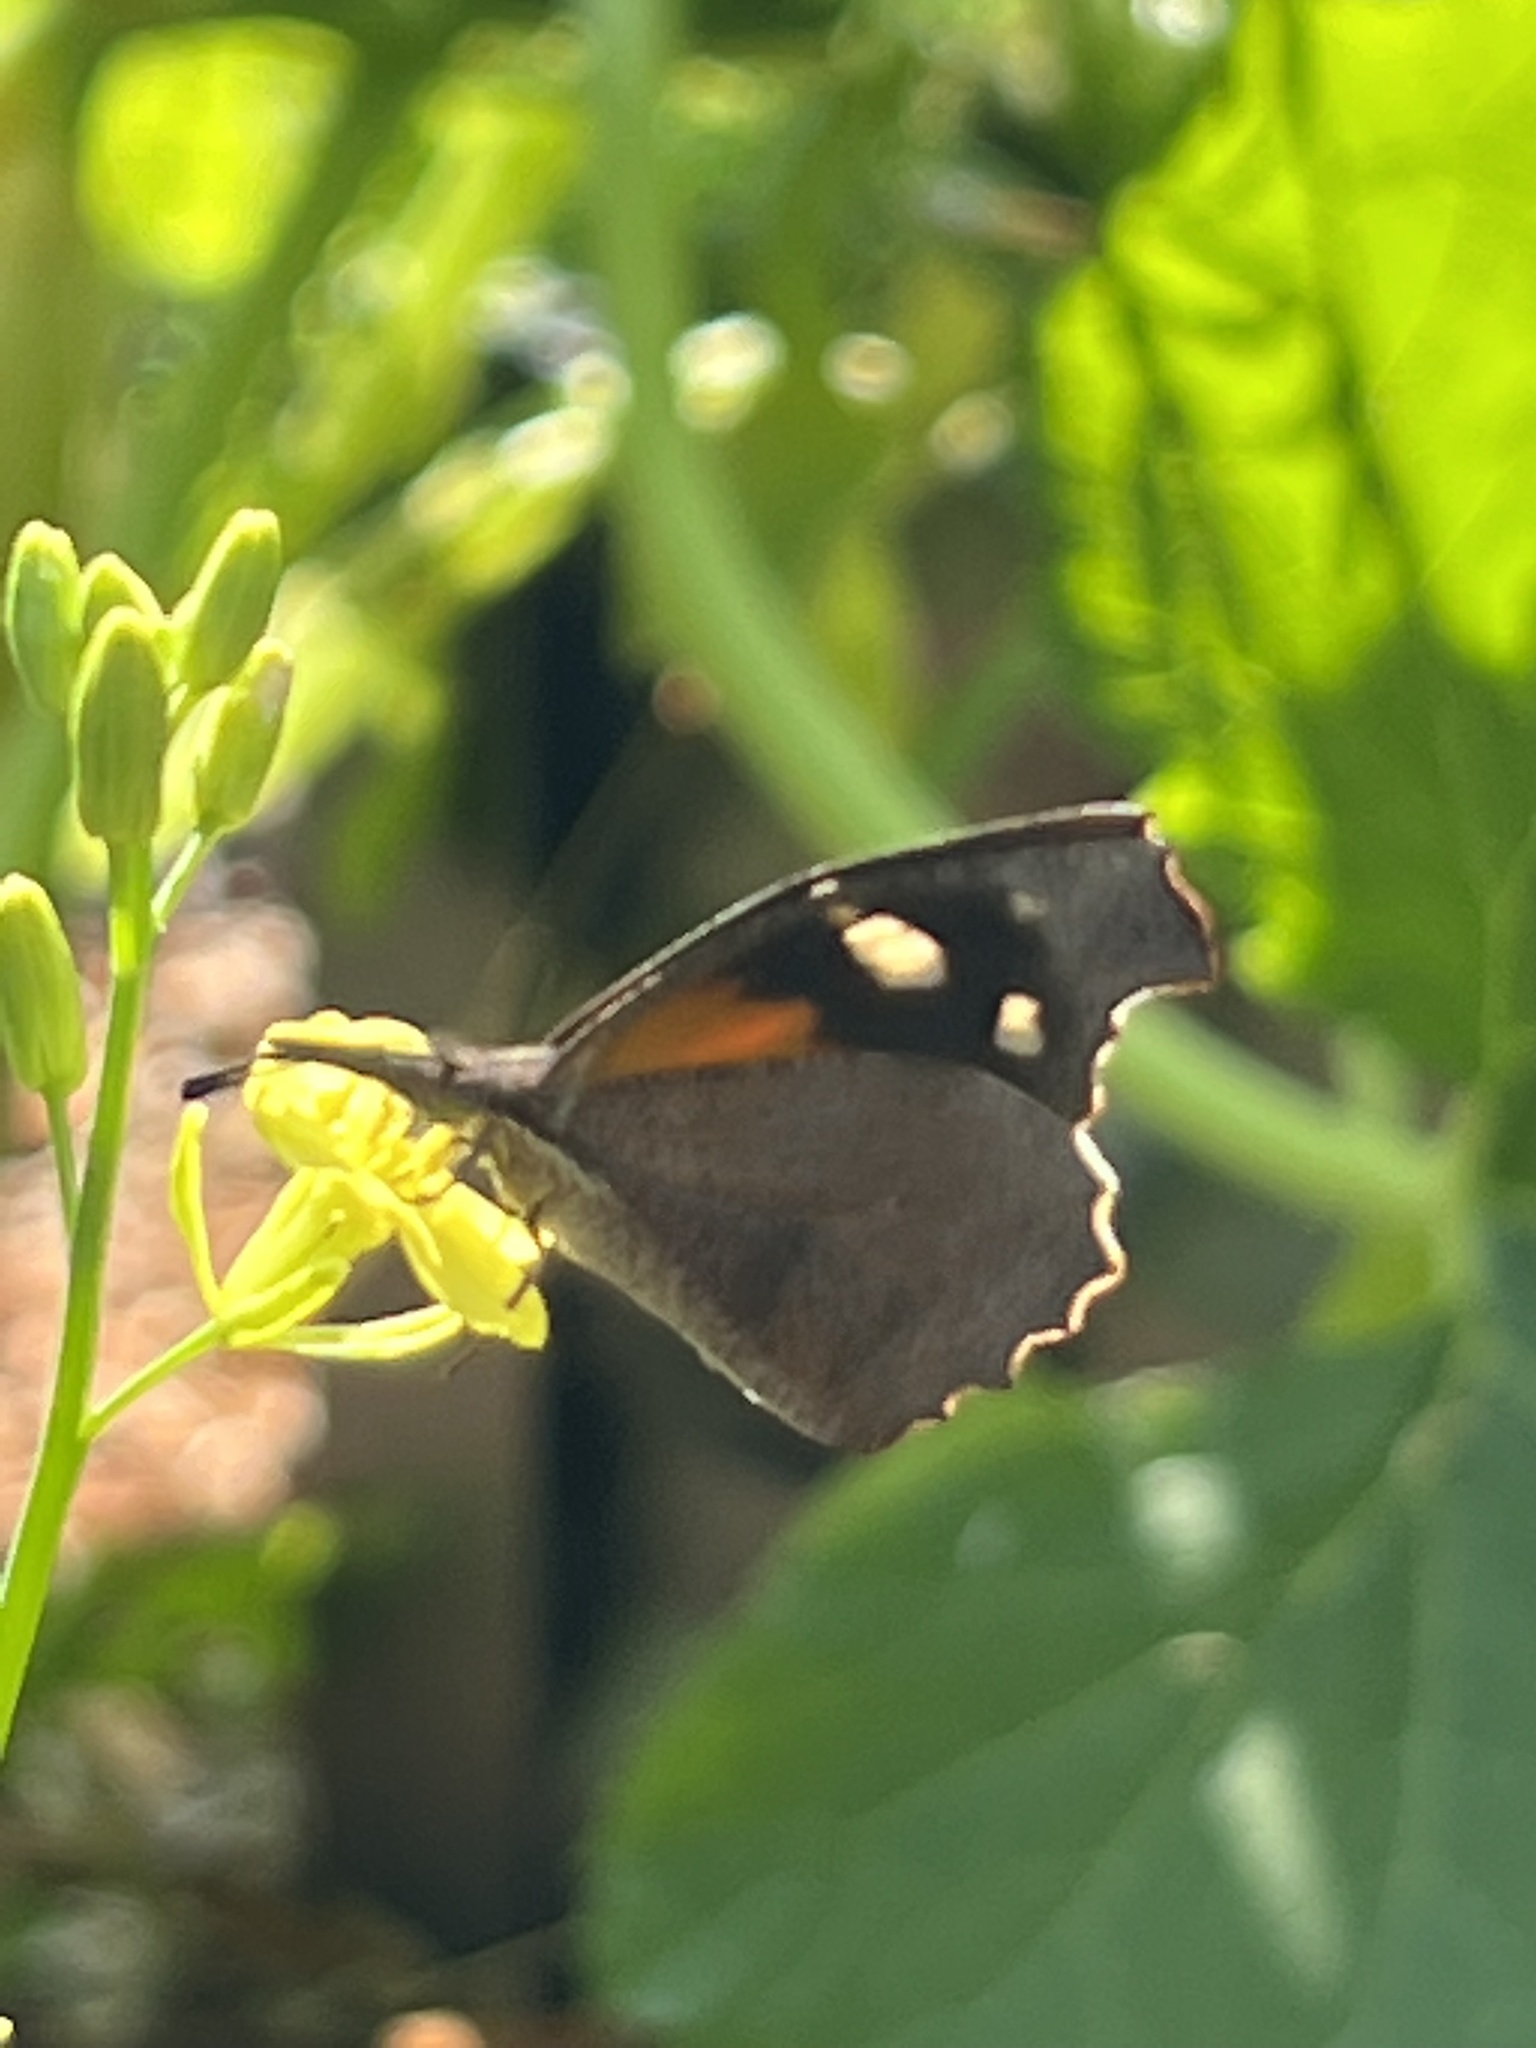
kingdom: Animalia
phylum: Arthropoda
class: Insecta
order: Lepidoptera
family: Nymphalidae
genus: Libytheana
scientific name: Libytheana carinenta
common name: American snout
